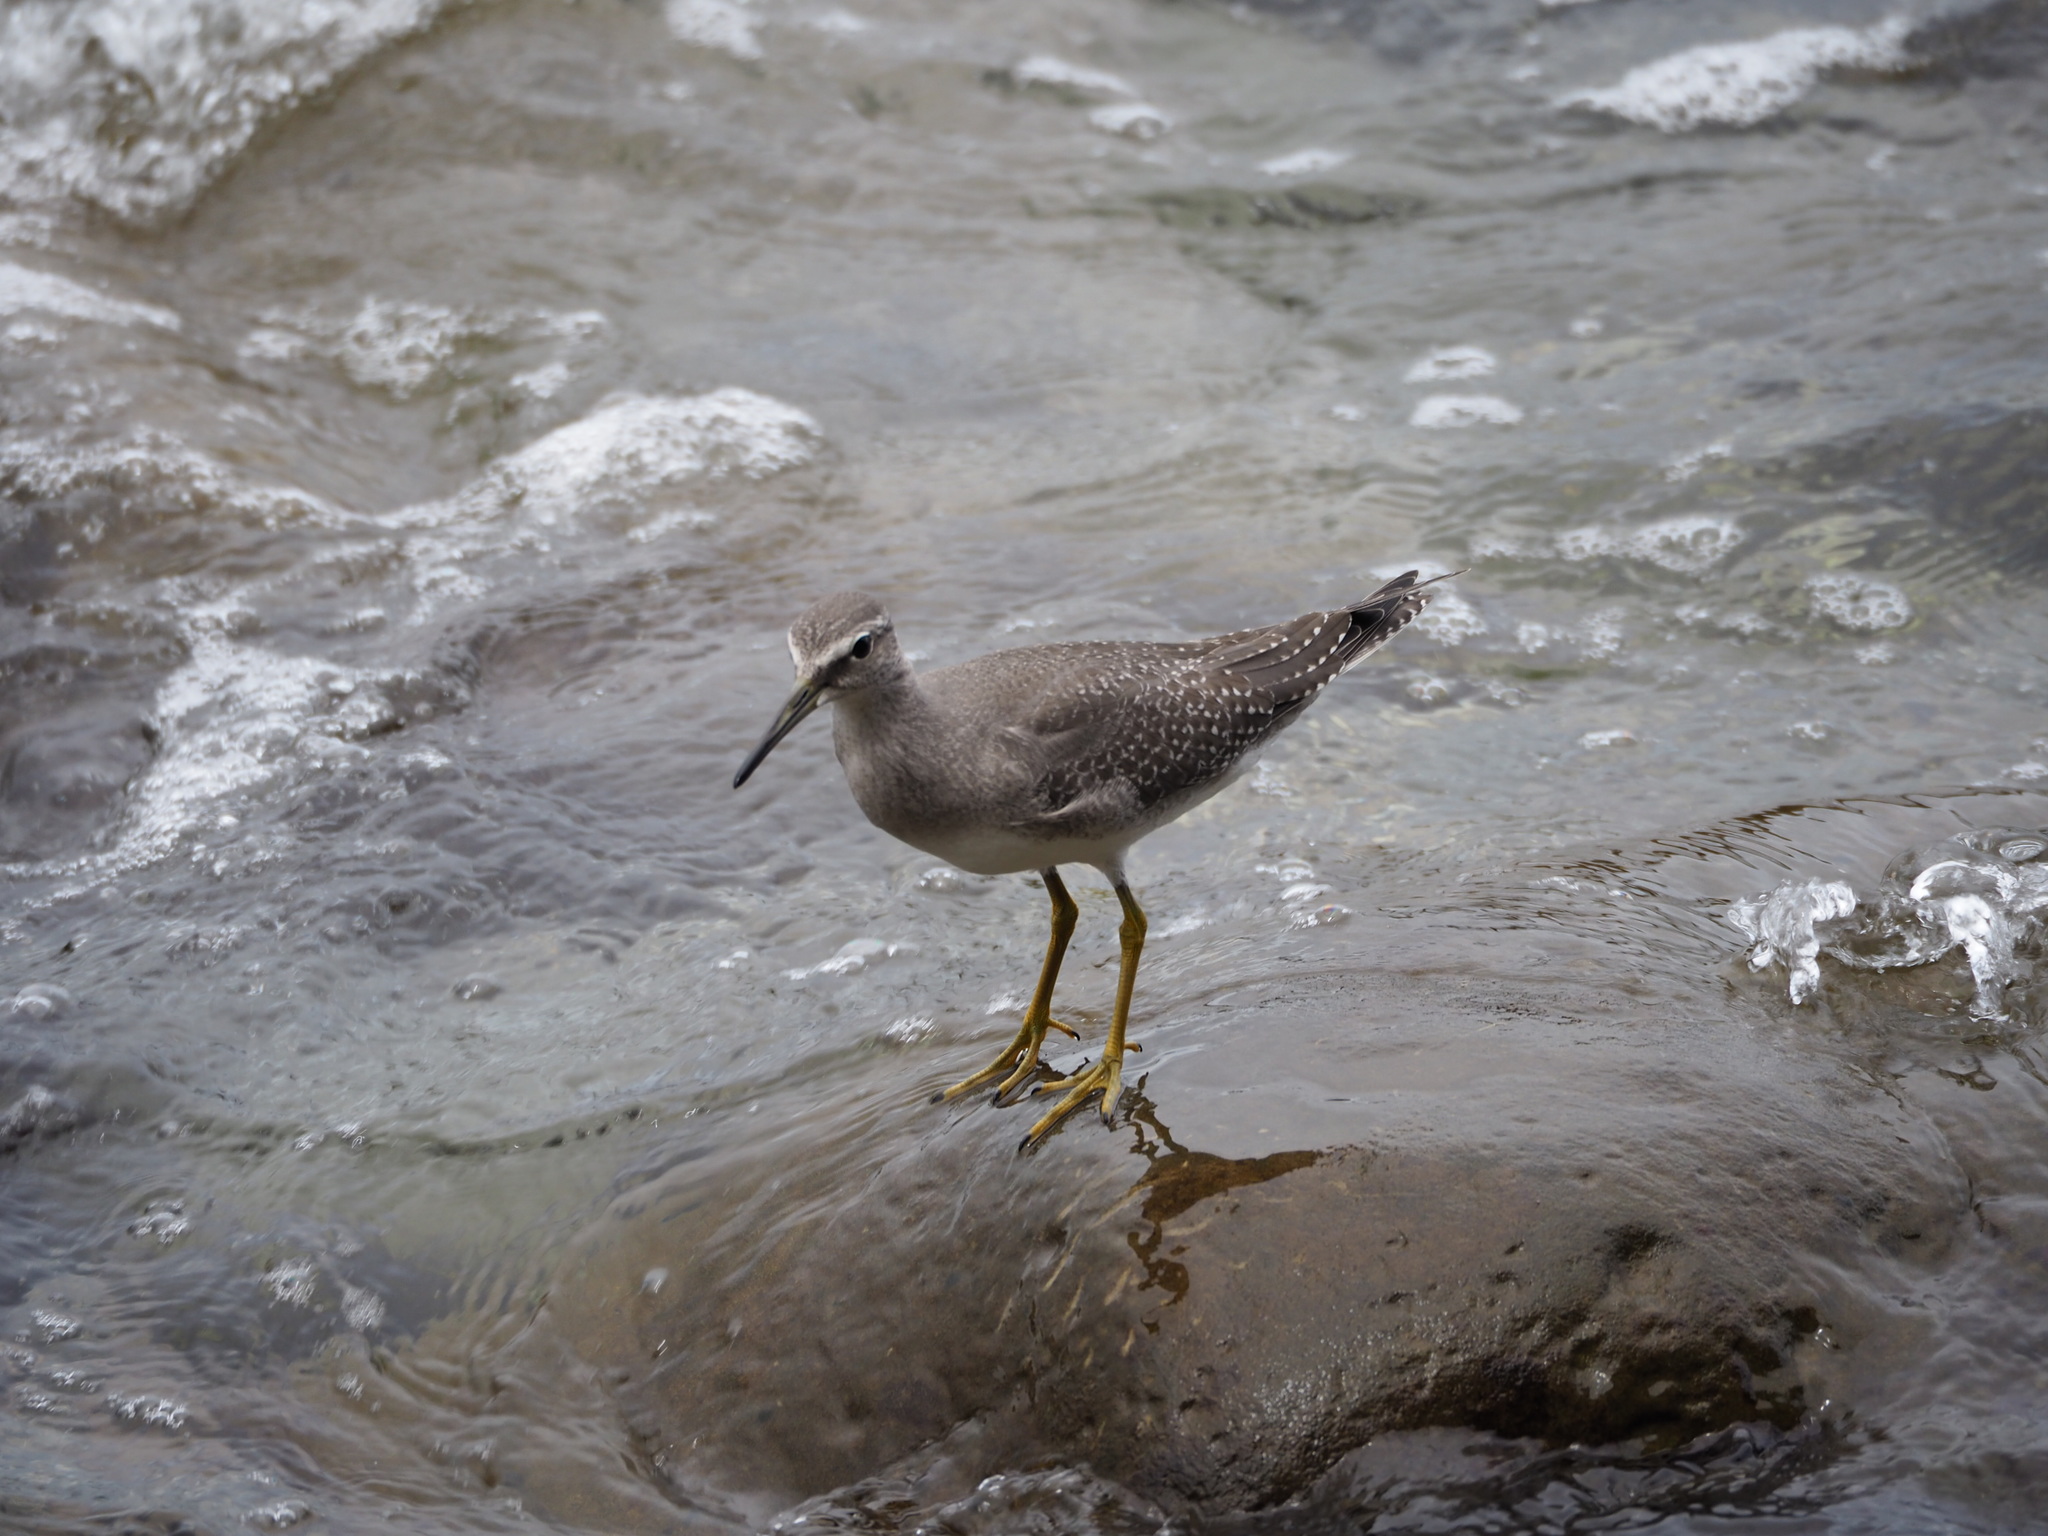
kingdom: Animalia
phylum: Chordata
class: Aves
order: Charadriiformes
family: Scolopacidae
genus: Tringa
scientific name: Tringa brevipes
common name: Grey-tailed tattler
